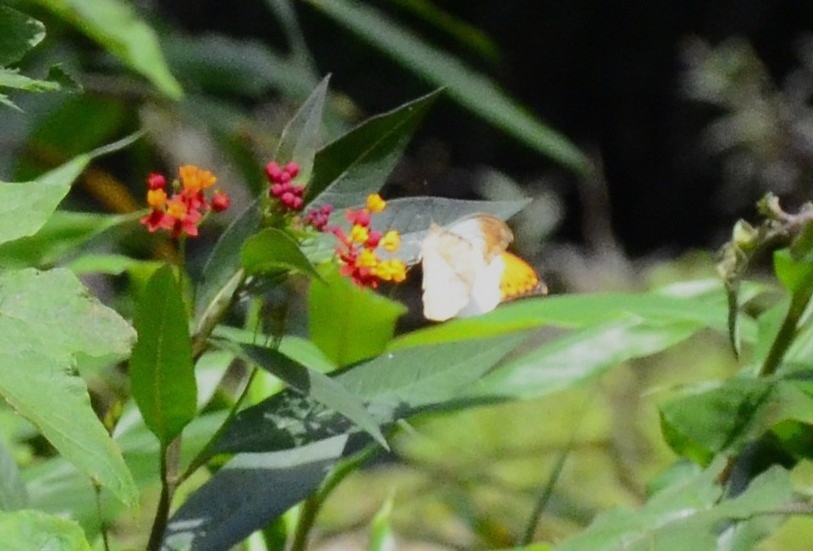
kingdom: Animalia
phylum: Arthropoda
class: Insecta
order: Lepidoptera
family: Pieridae
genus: Hebomoia
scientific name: Hebomoia glaucippe
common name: Great orange tip
